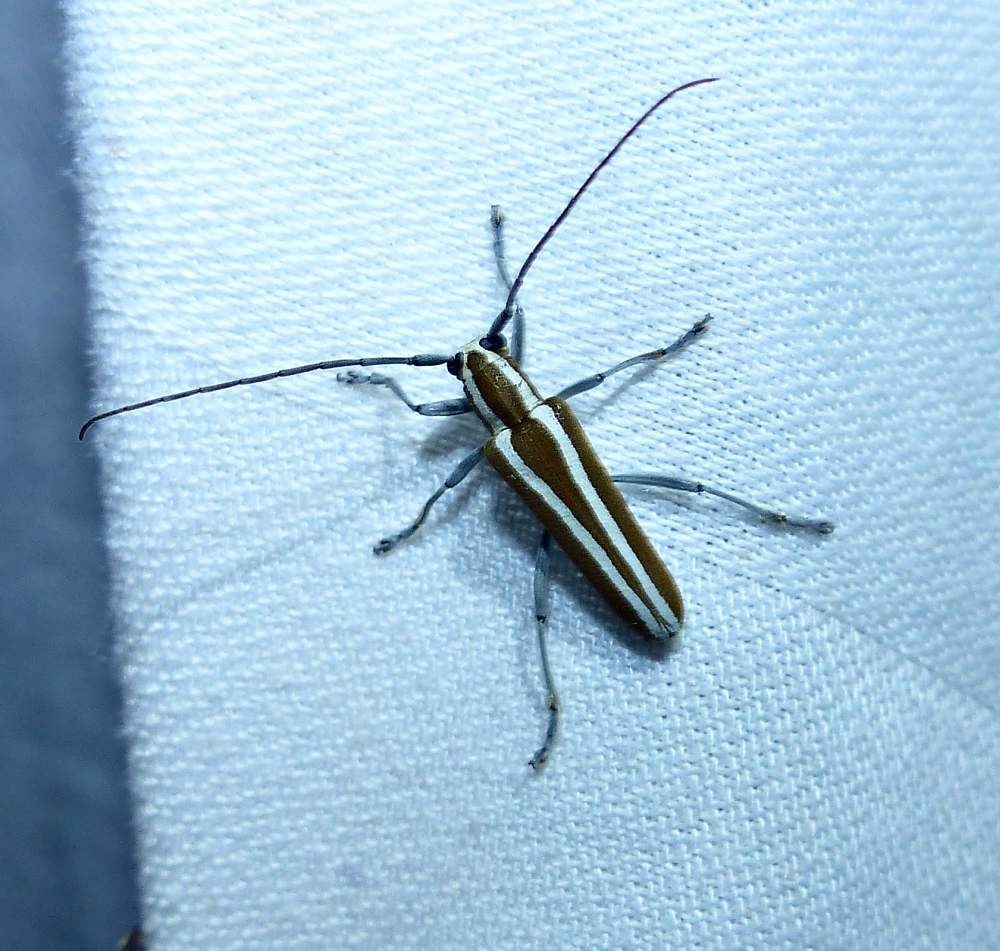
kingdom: Animalia
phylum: Arthropoda
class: Insecta
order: Coleoptera
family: Cerambycidae
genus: Saperda
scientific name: Saperda candida
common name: Round-headed borer
